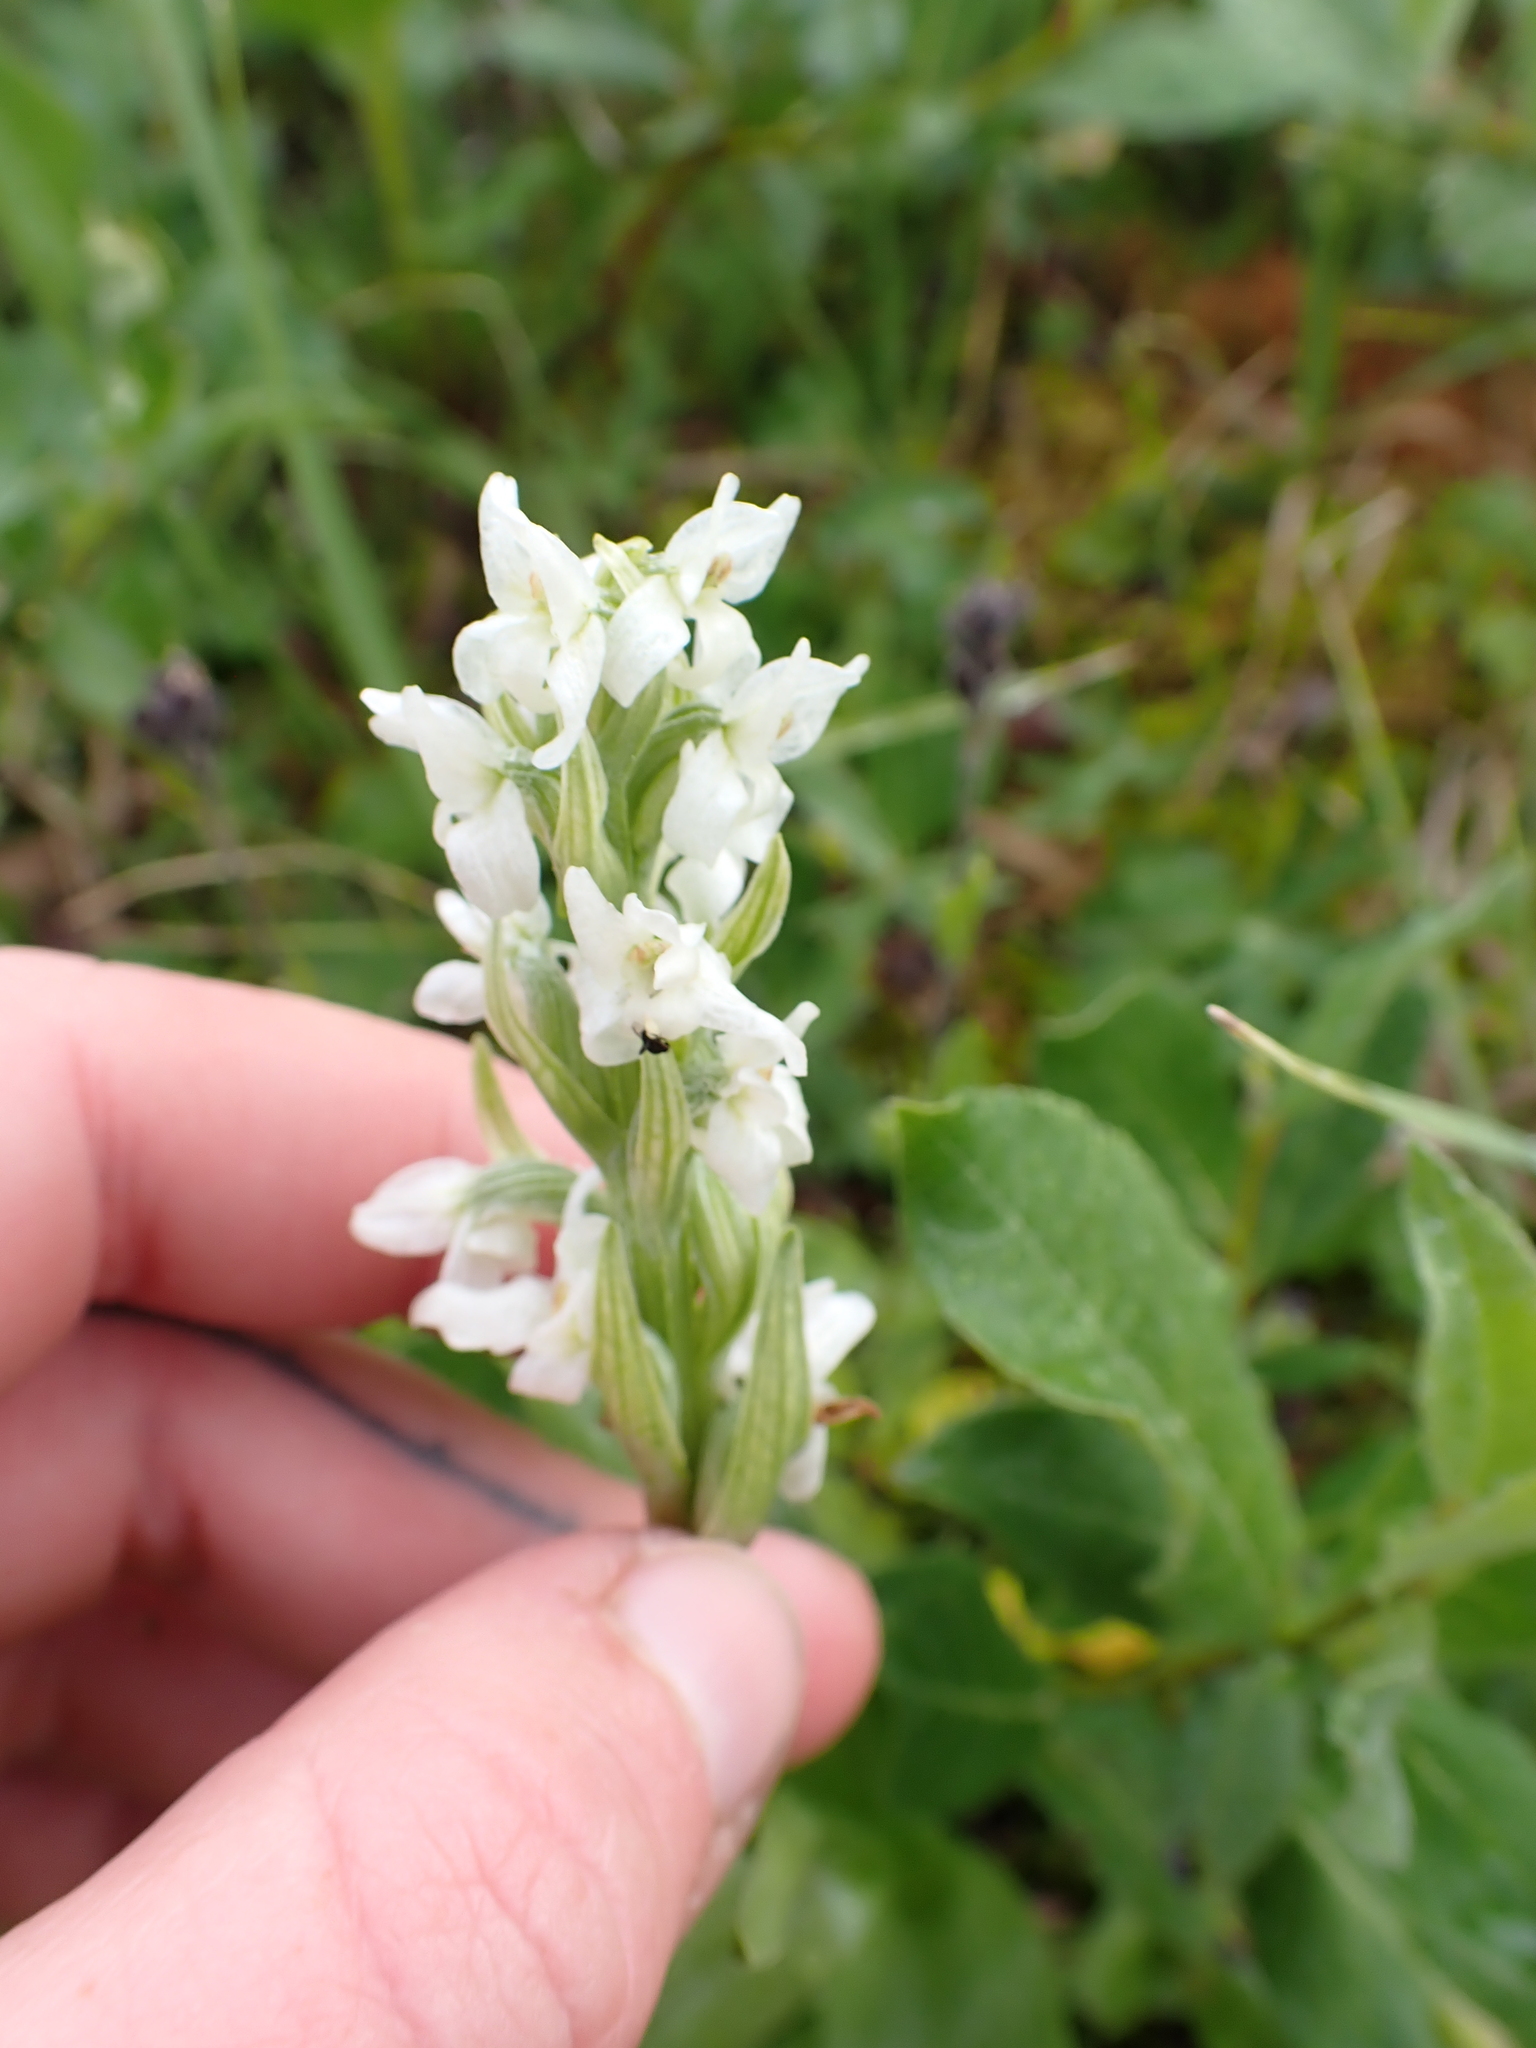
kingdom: Plantae
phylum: Tracheophyta
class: Liliopsida
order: Asparagales
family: Orchidaceae
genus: Platanthera
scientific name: Platanthera dilatata
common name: Bog candles
